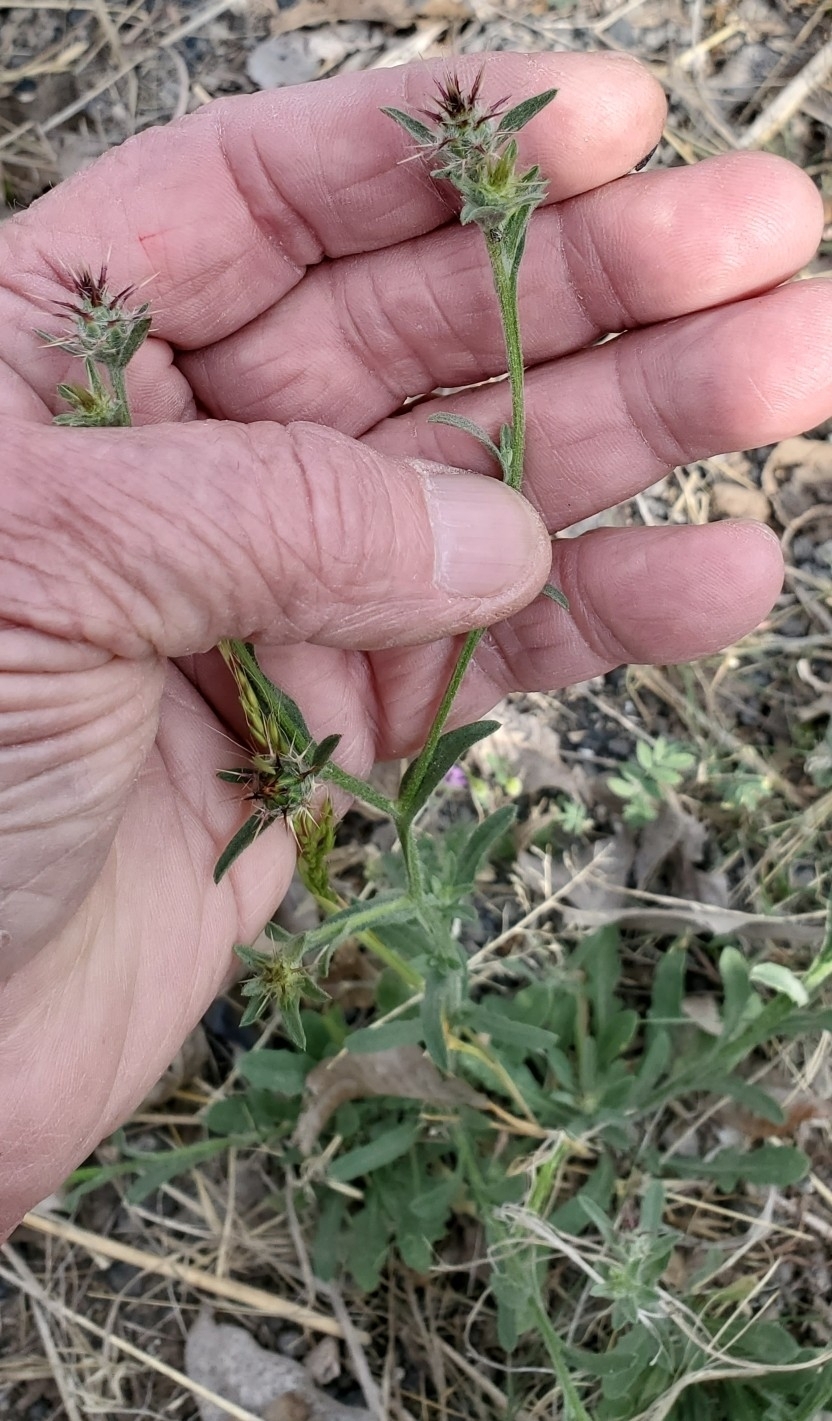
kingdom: Plantae
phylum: Tracheophyta
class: Magnoliopsida
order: Asterales
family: Asteraceae
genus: Centaurea
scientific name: Centaurea melitensis
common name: Maltese star-thistle
